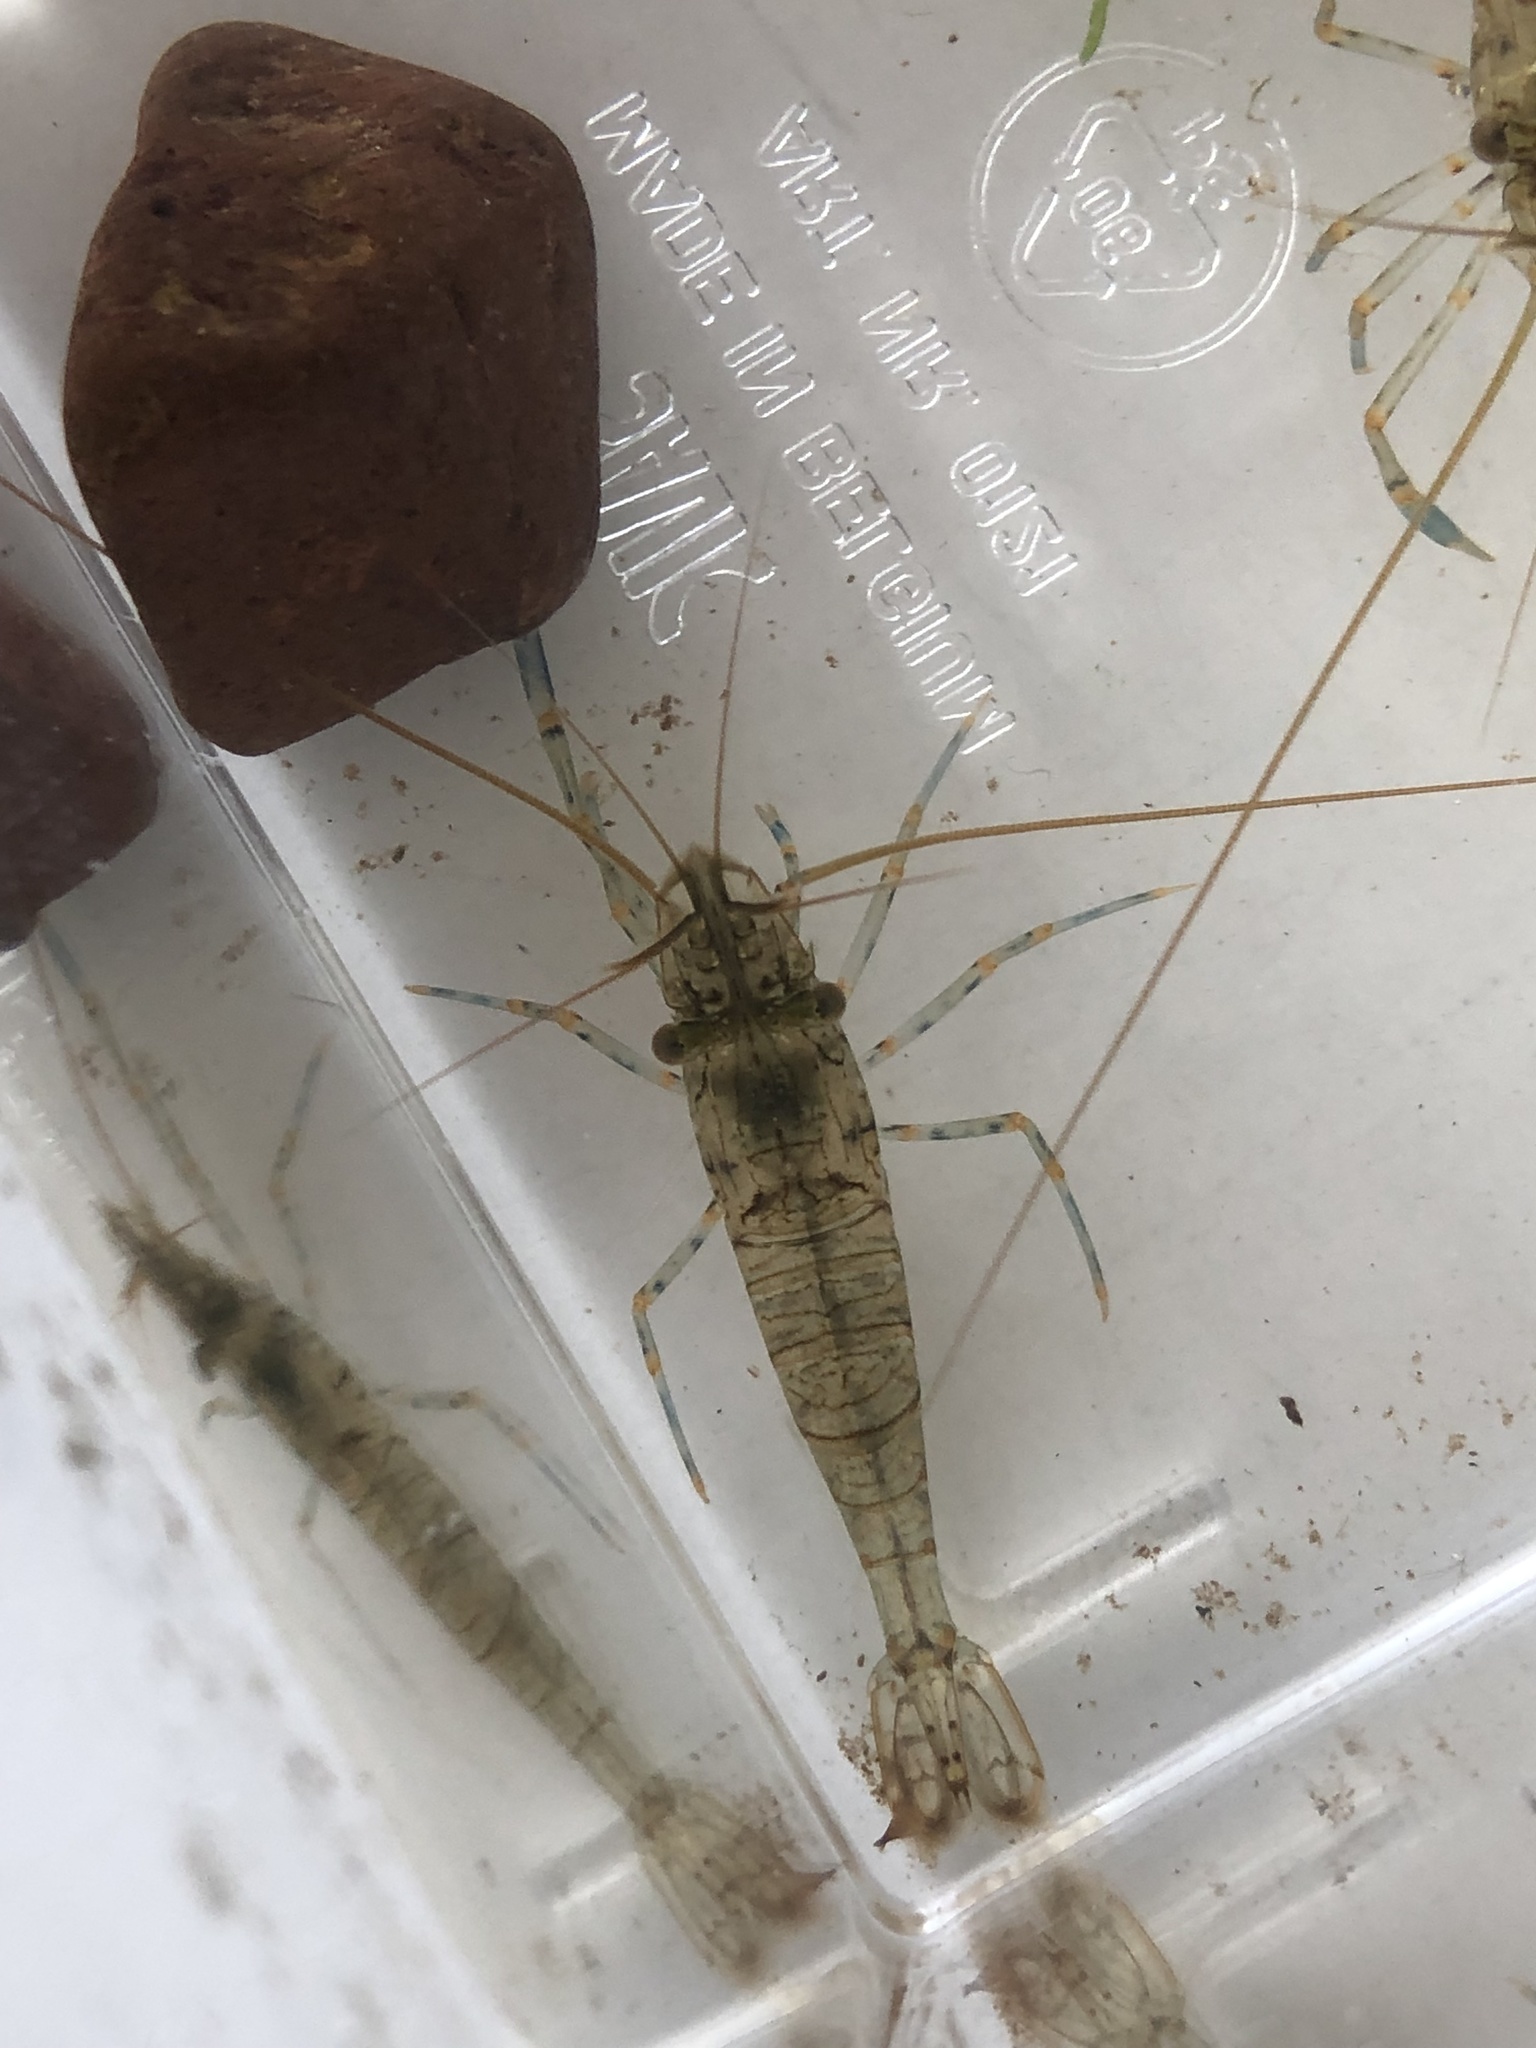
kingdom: Animalia
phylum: Arthropoda
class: Malacostraca
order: Decapoda
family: Palaemonidae
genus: Palaemon
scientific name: Palaemon elegans
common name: Grass prawm
